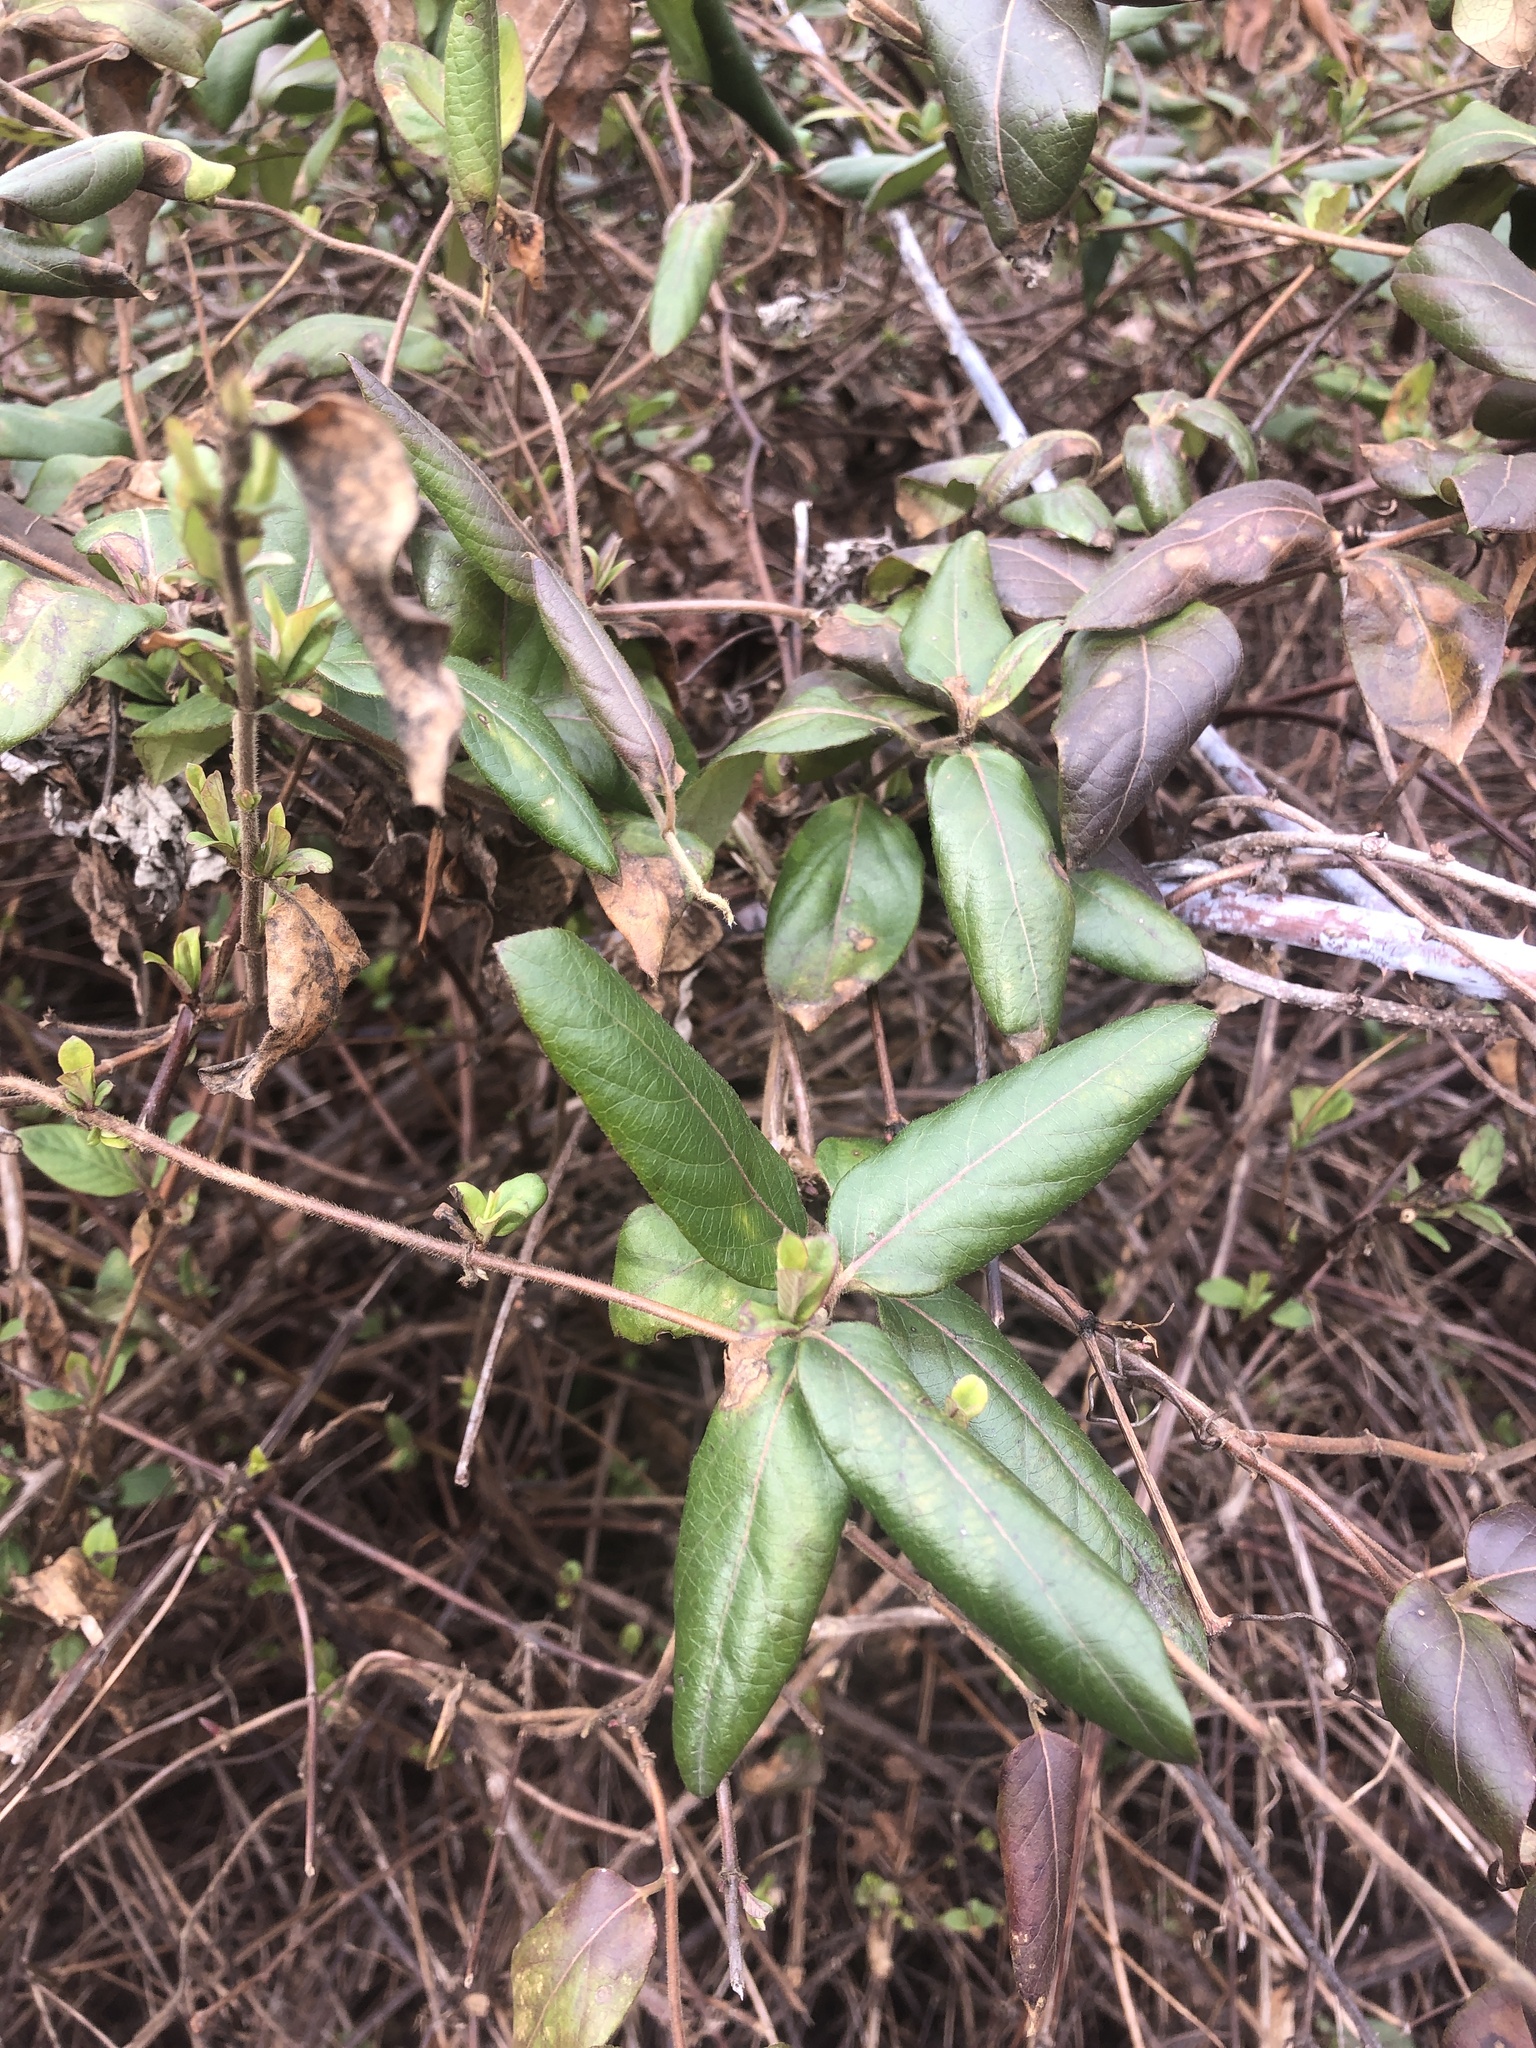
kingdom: Plantae
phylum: Tracheophyta
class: Magnoliopsida
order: Dipsacales
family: Caprifoliaceae
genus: Lonicera
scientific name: Lonicera japonica
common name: Japanese honeysuckle
